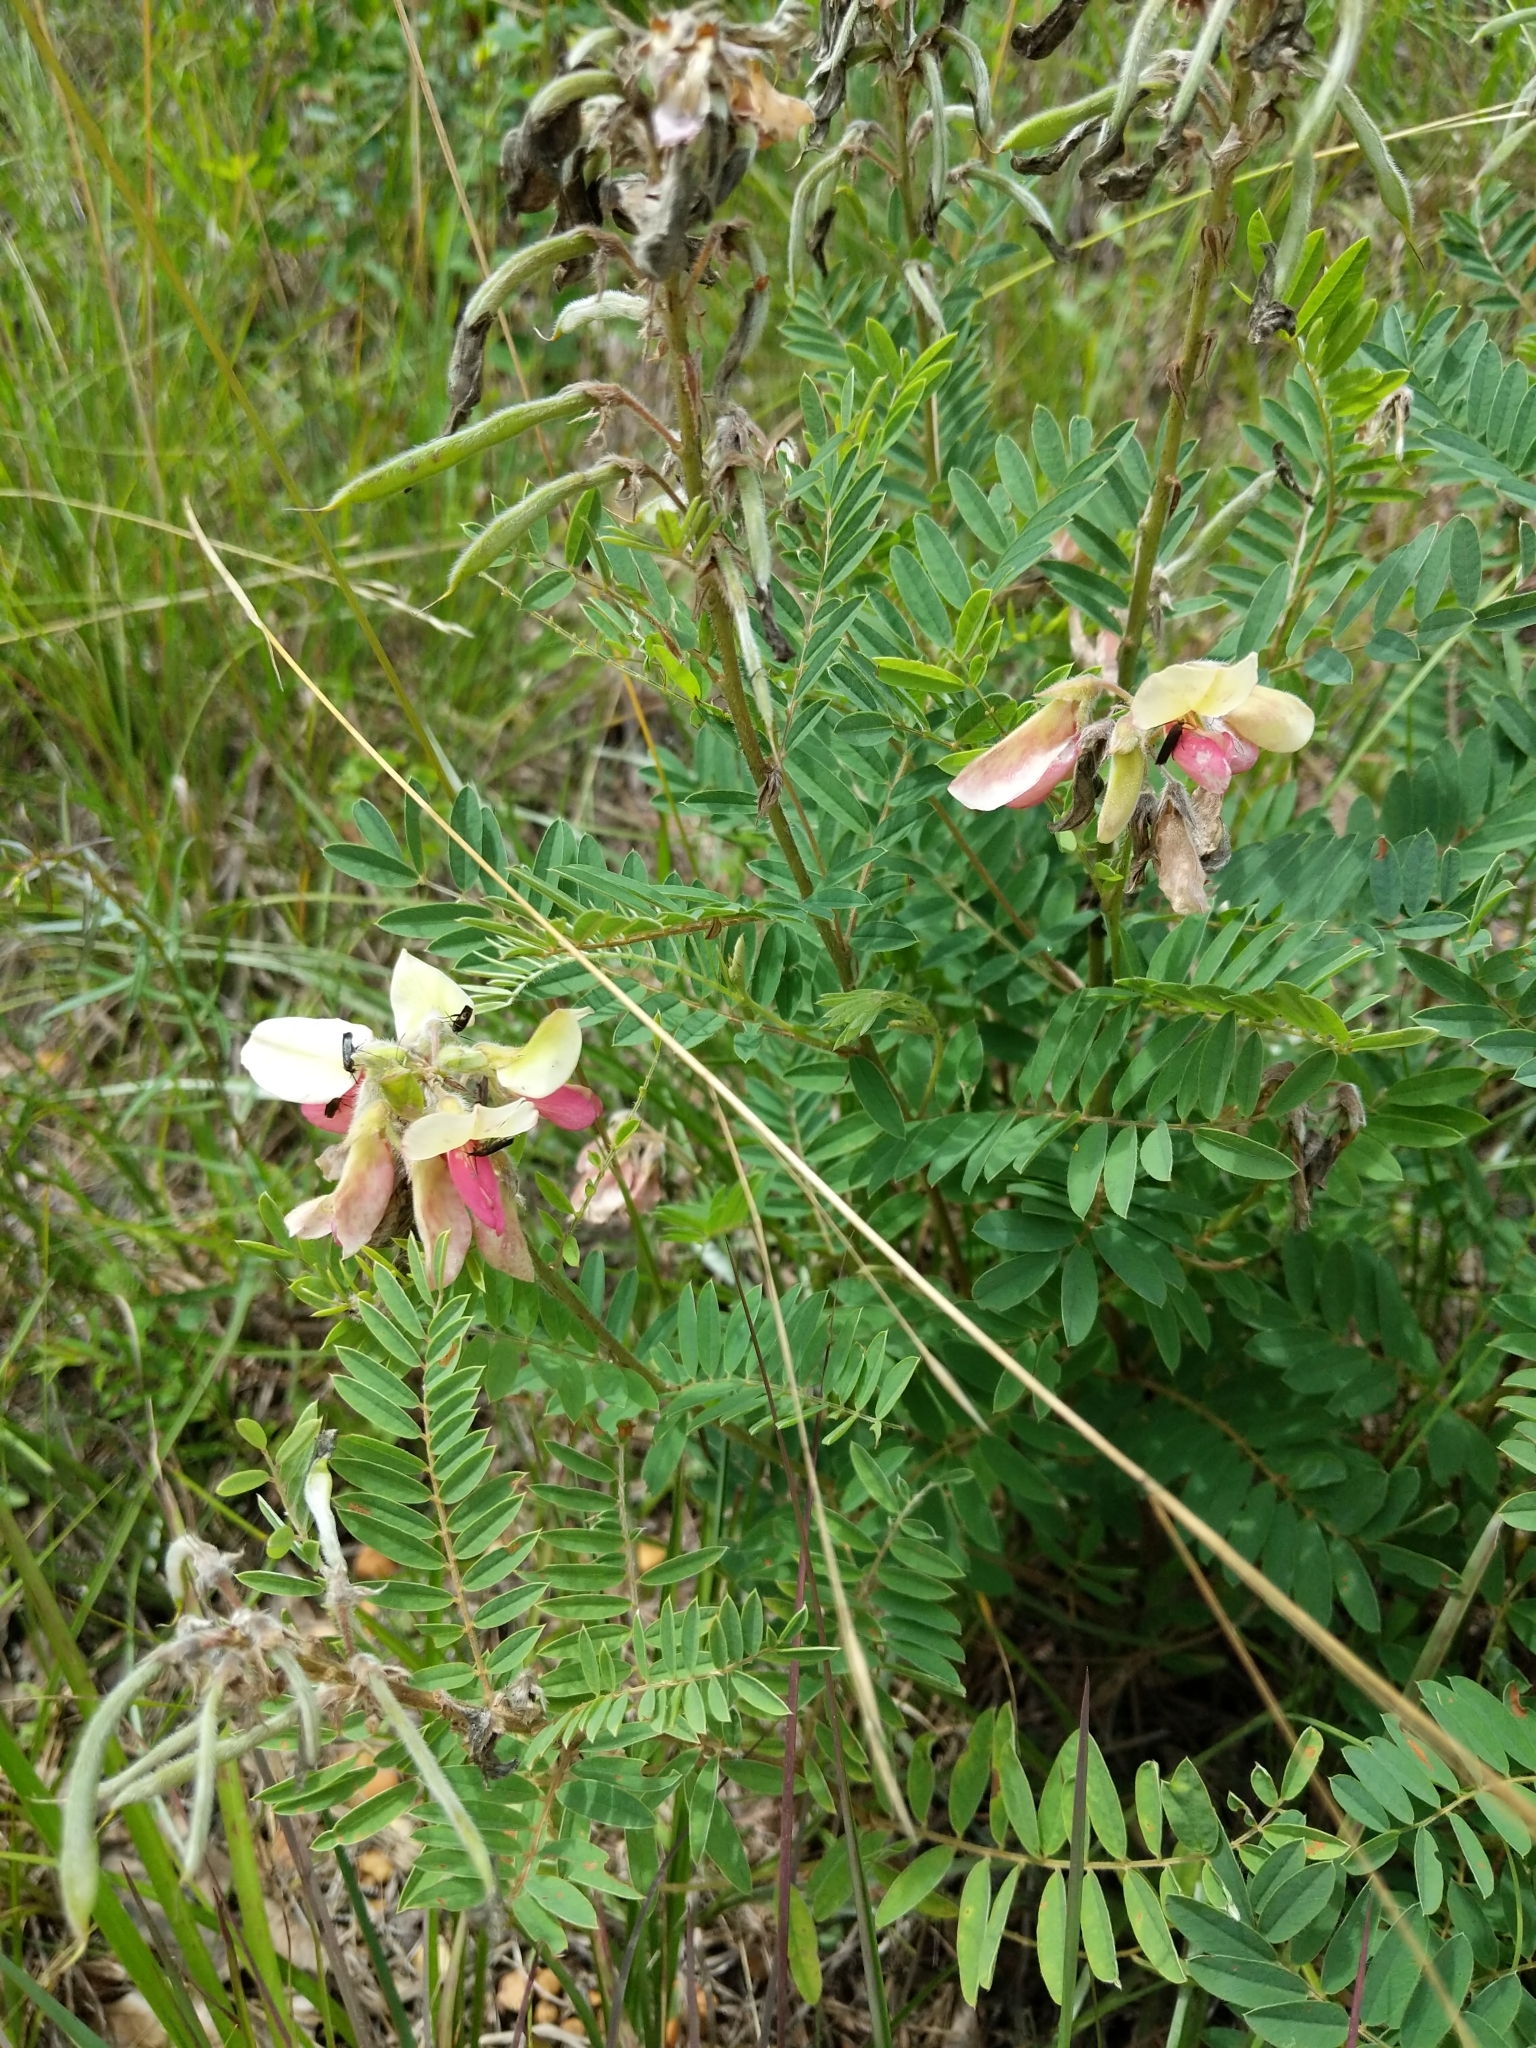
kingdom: Plantae
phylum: Tracheophyta
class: Magnoliopsida
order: Fabales
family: Fabaceae
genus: Tephrosia
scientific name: Tephrosia virginiana
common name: Rabbit-pea
